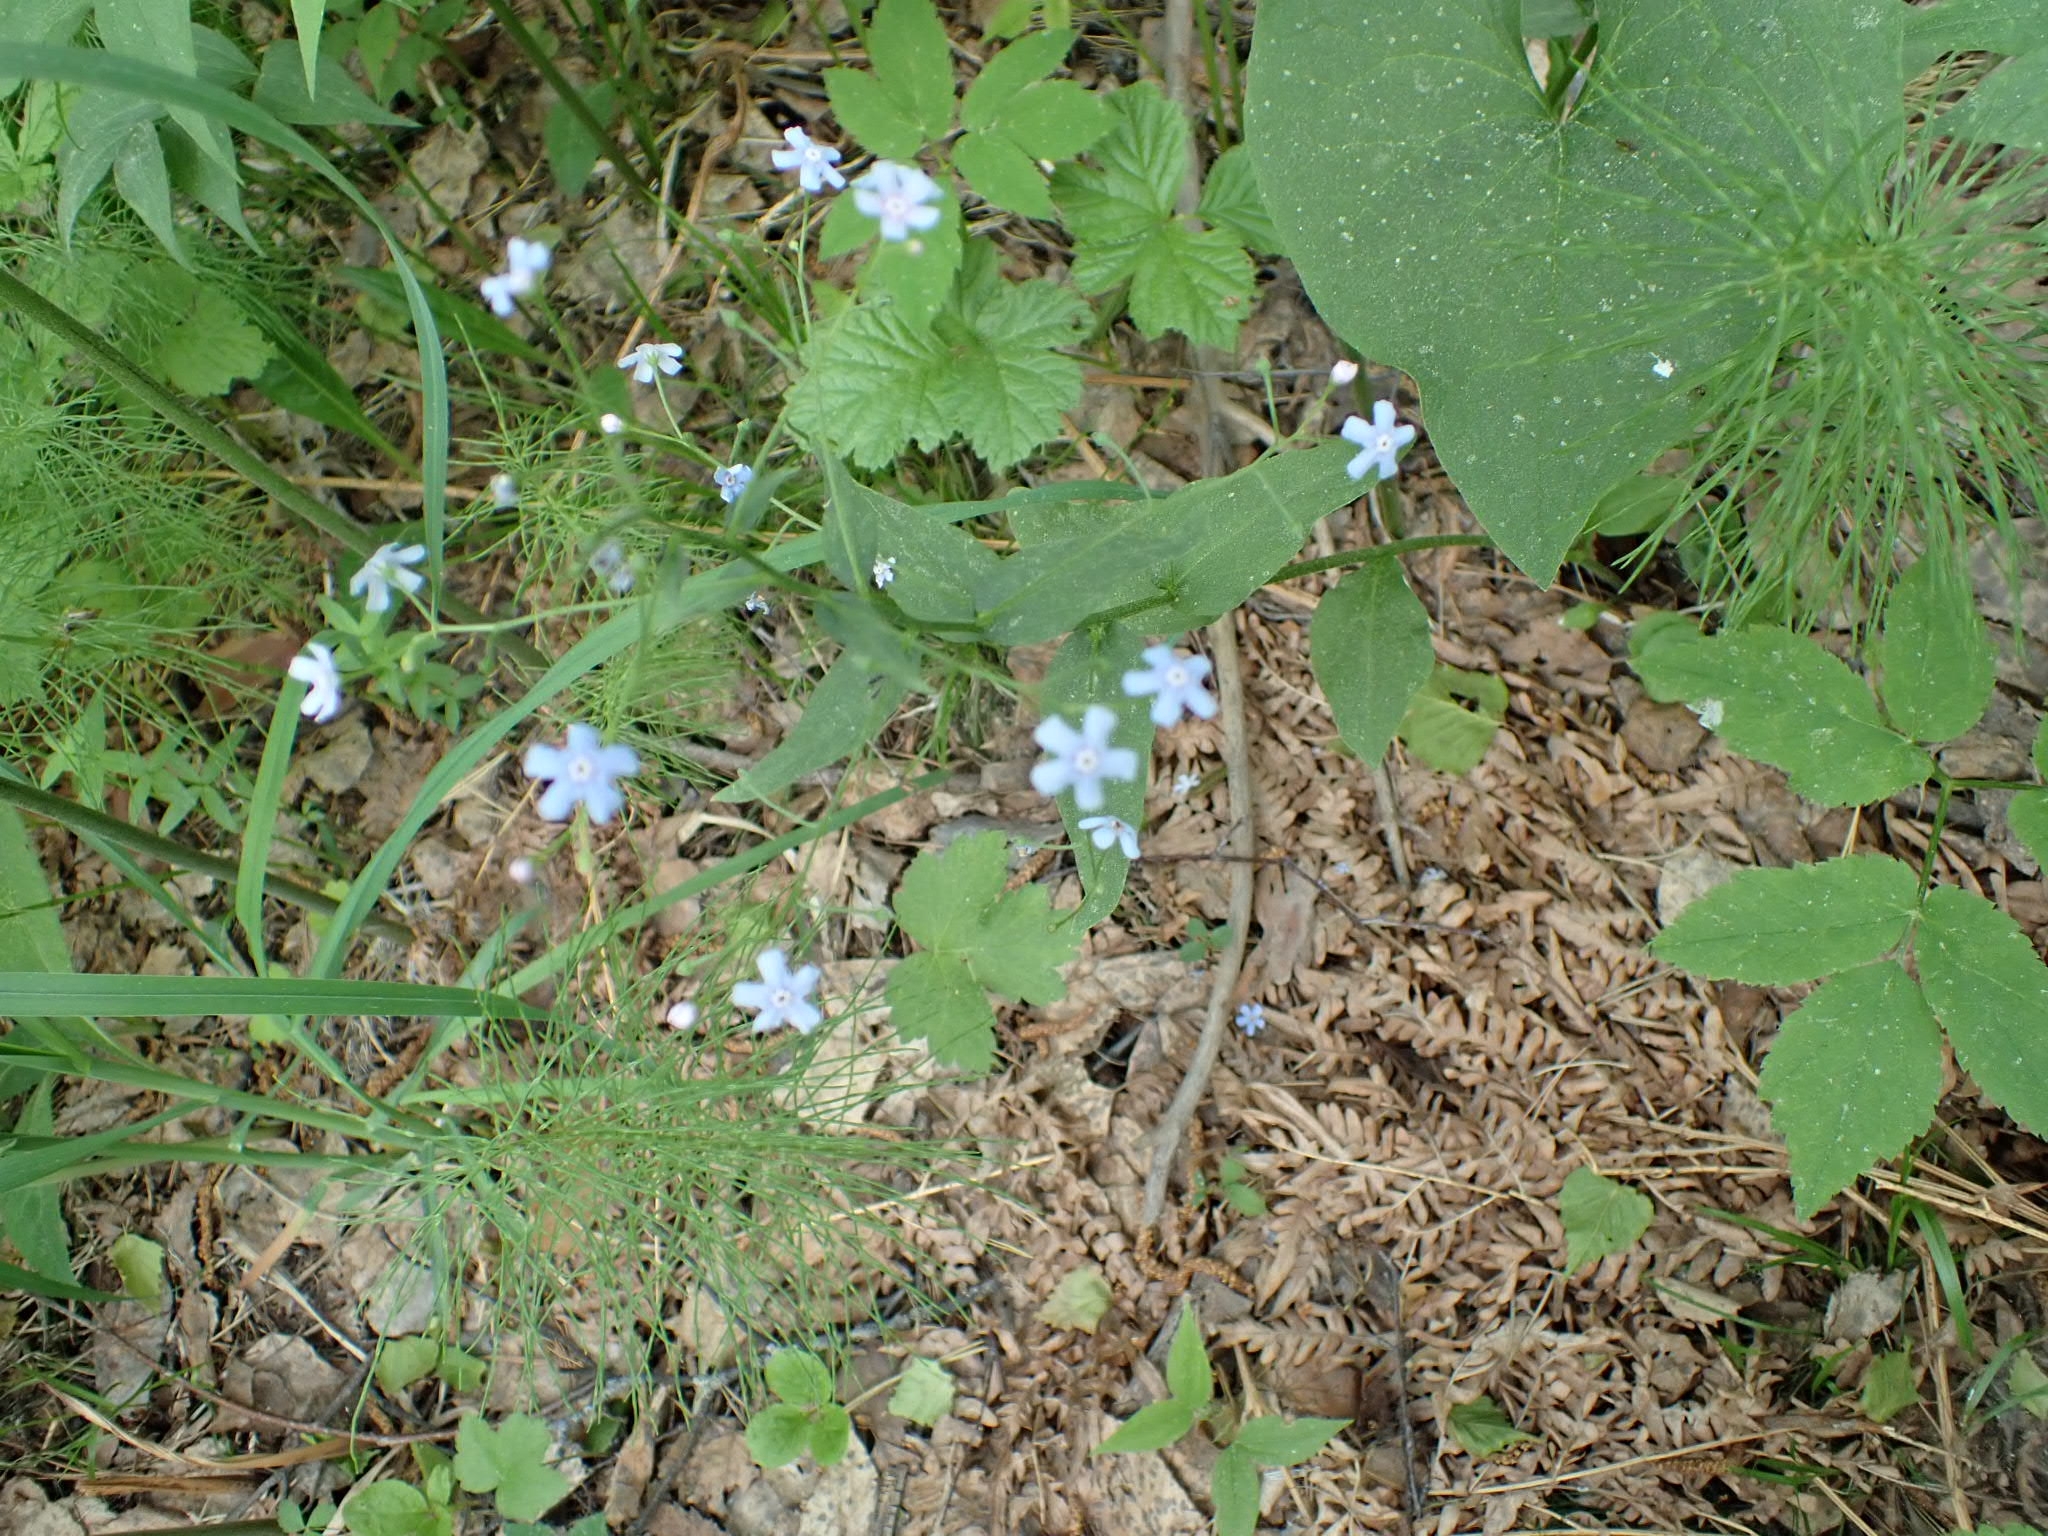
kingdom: Plantae
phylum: Tracheophyta
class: Magnoliopsida
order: Boraginales
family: Boraginaceae
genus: Brunnera
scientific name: Brunnera sibirica
